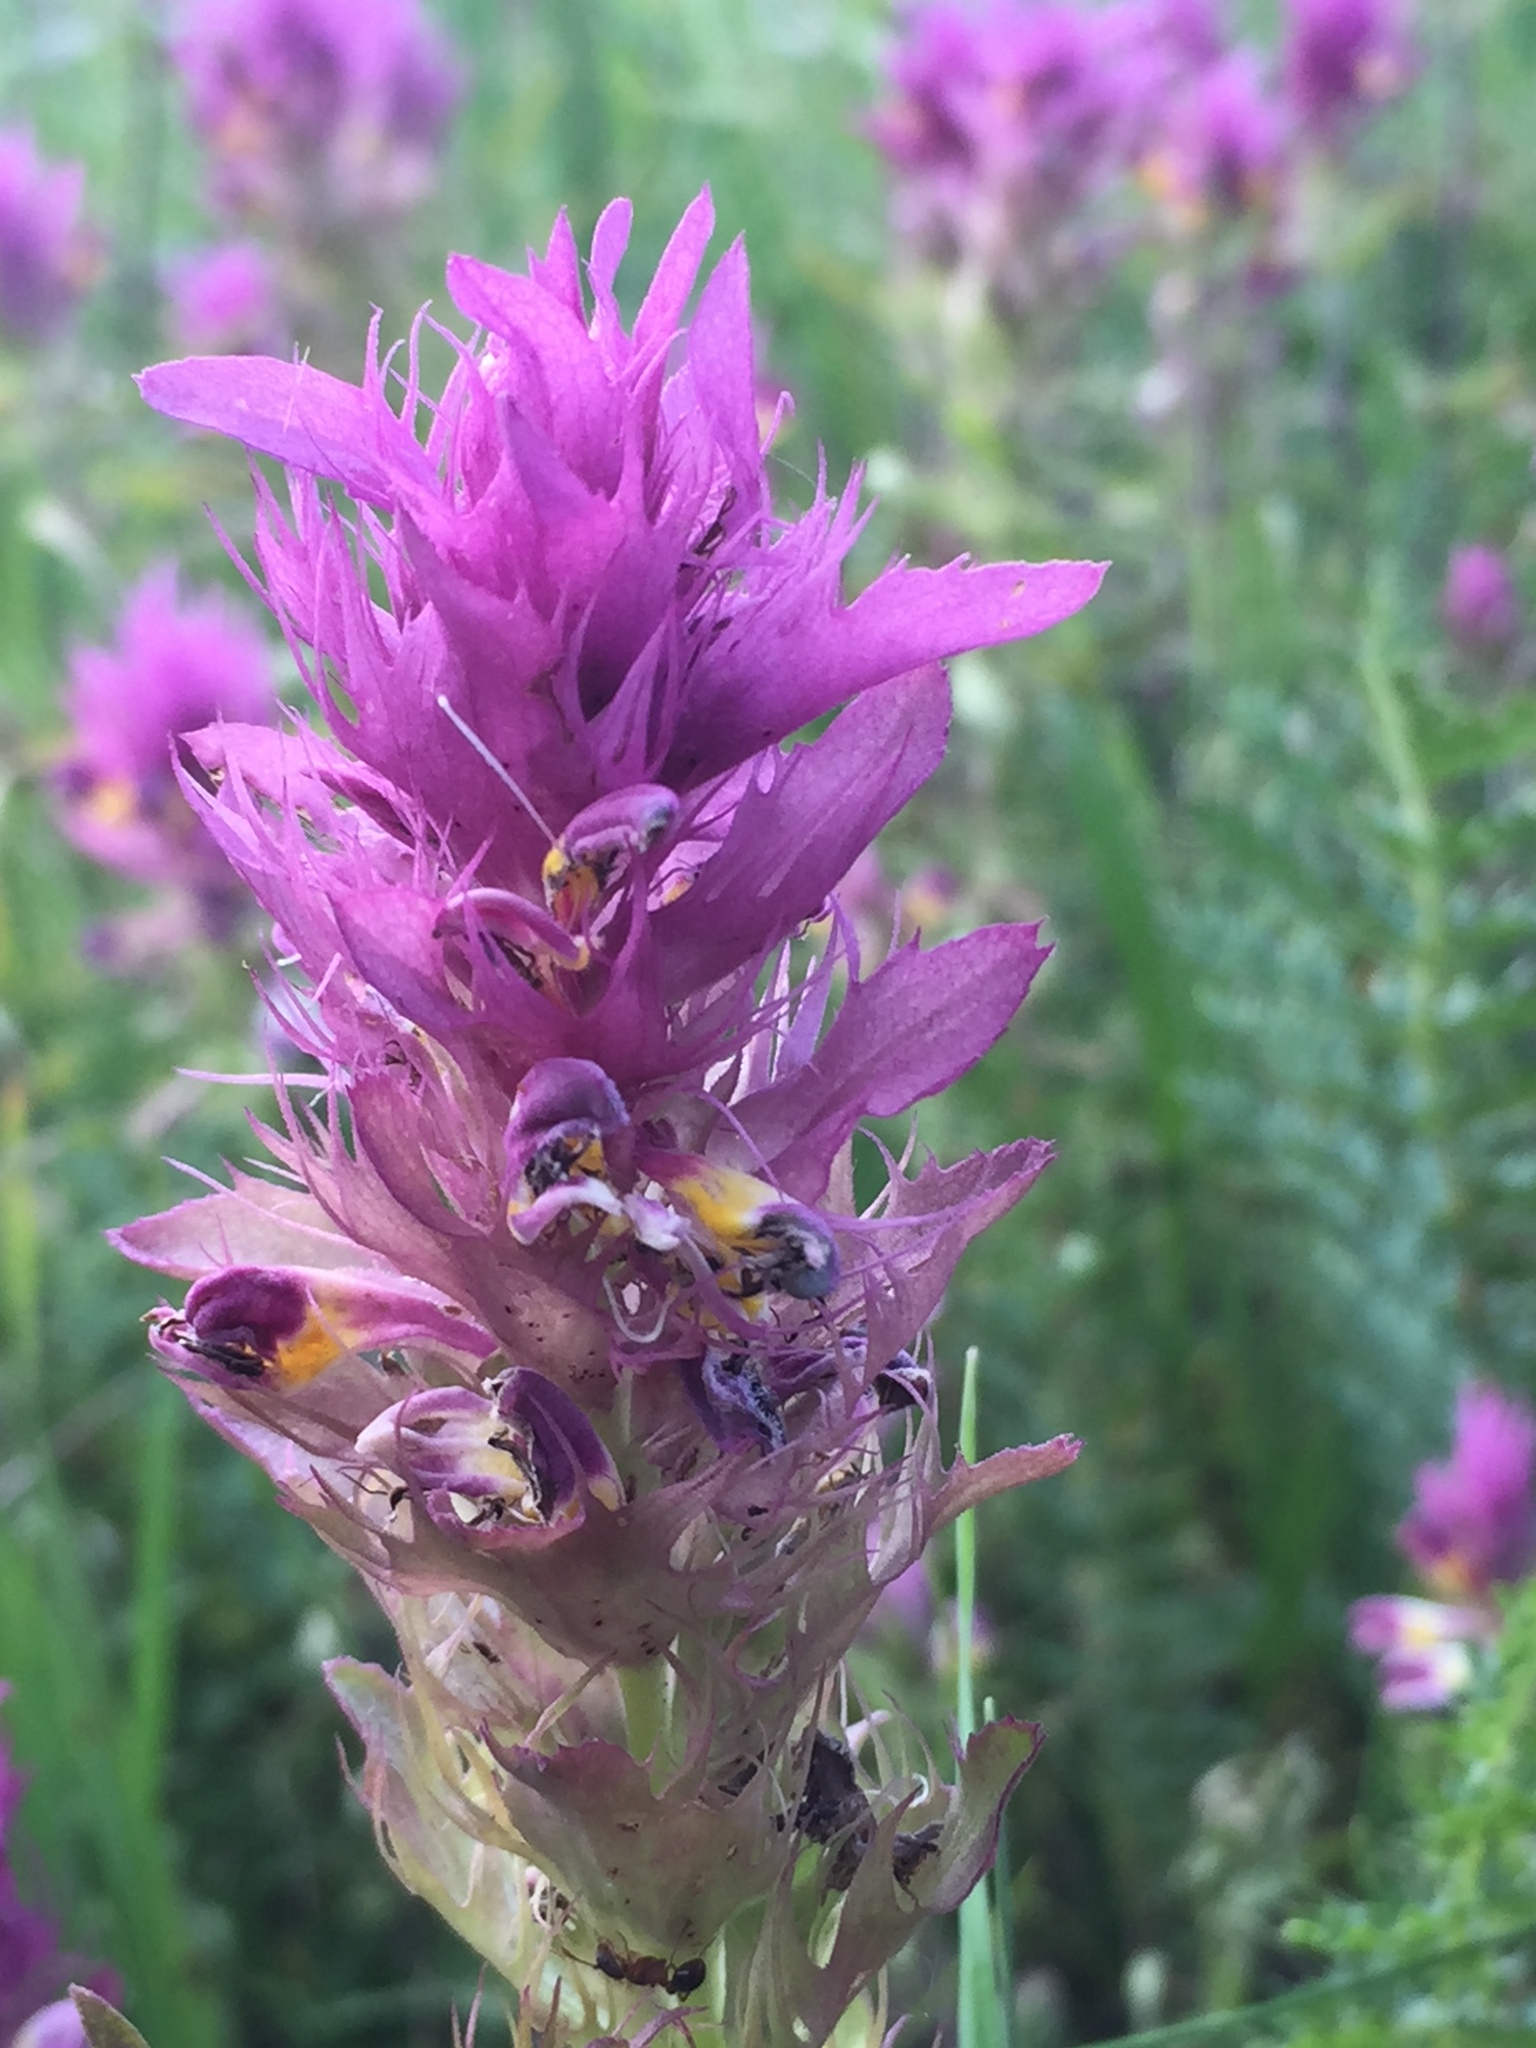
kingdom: Plantae
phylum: Tracheophyta
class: Magnoliopsida
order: Lamiales
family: Orobanchaceae
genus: Melampyrum
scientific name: Melampyrum arvense
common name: Field cow-wheat
